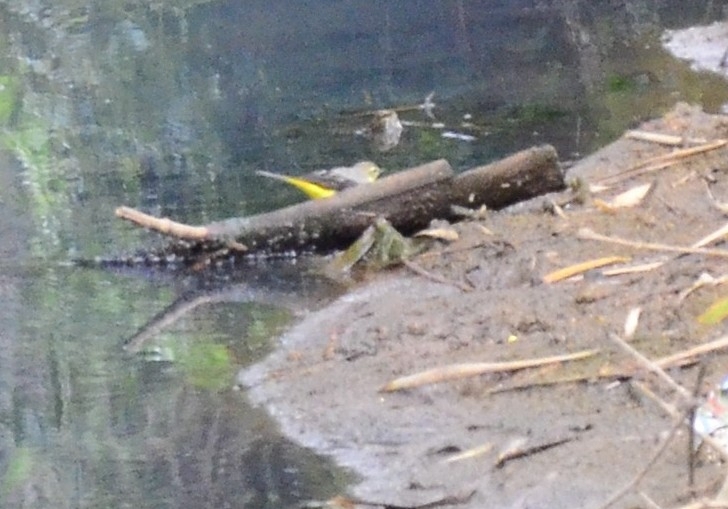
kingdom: Animalia
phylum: Chordata
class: Aves
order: Passeriformes
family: Motacillidae
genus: Motacilla
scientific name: Motacilla cinerea
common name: Grey wagtail
